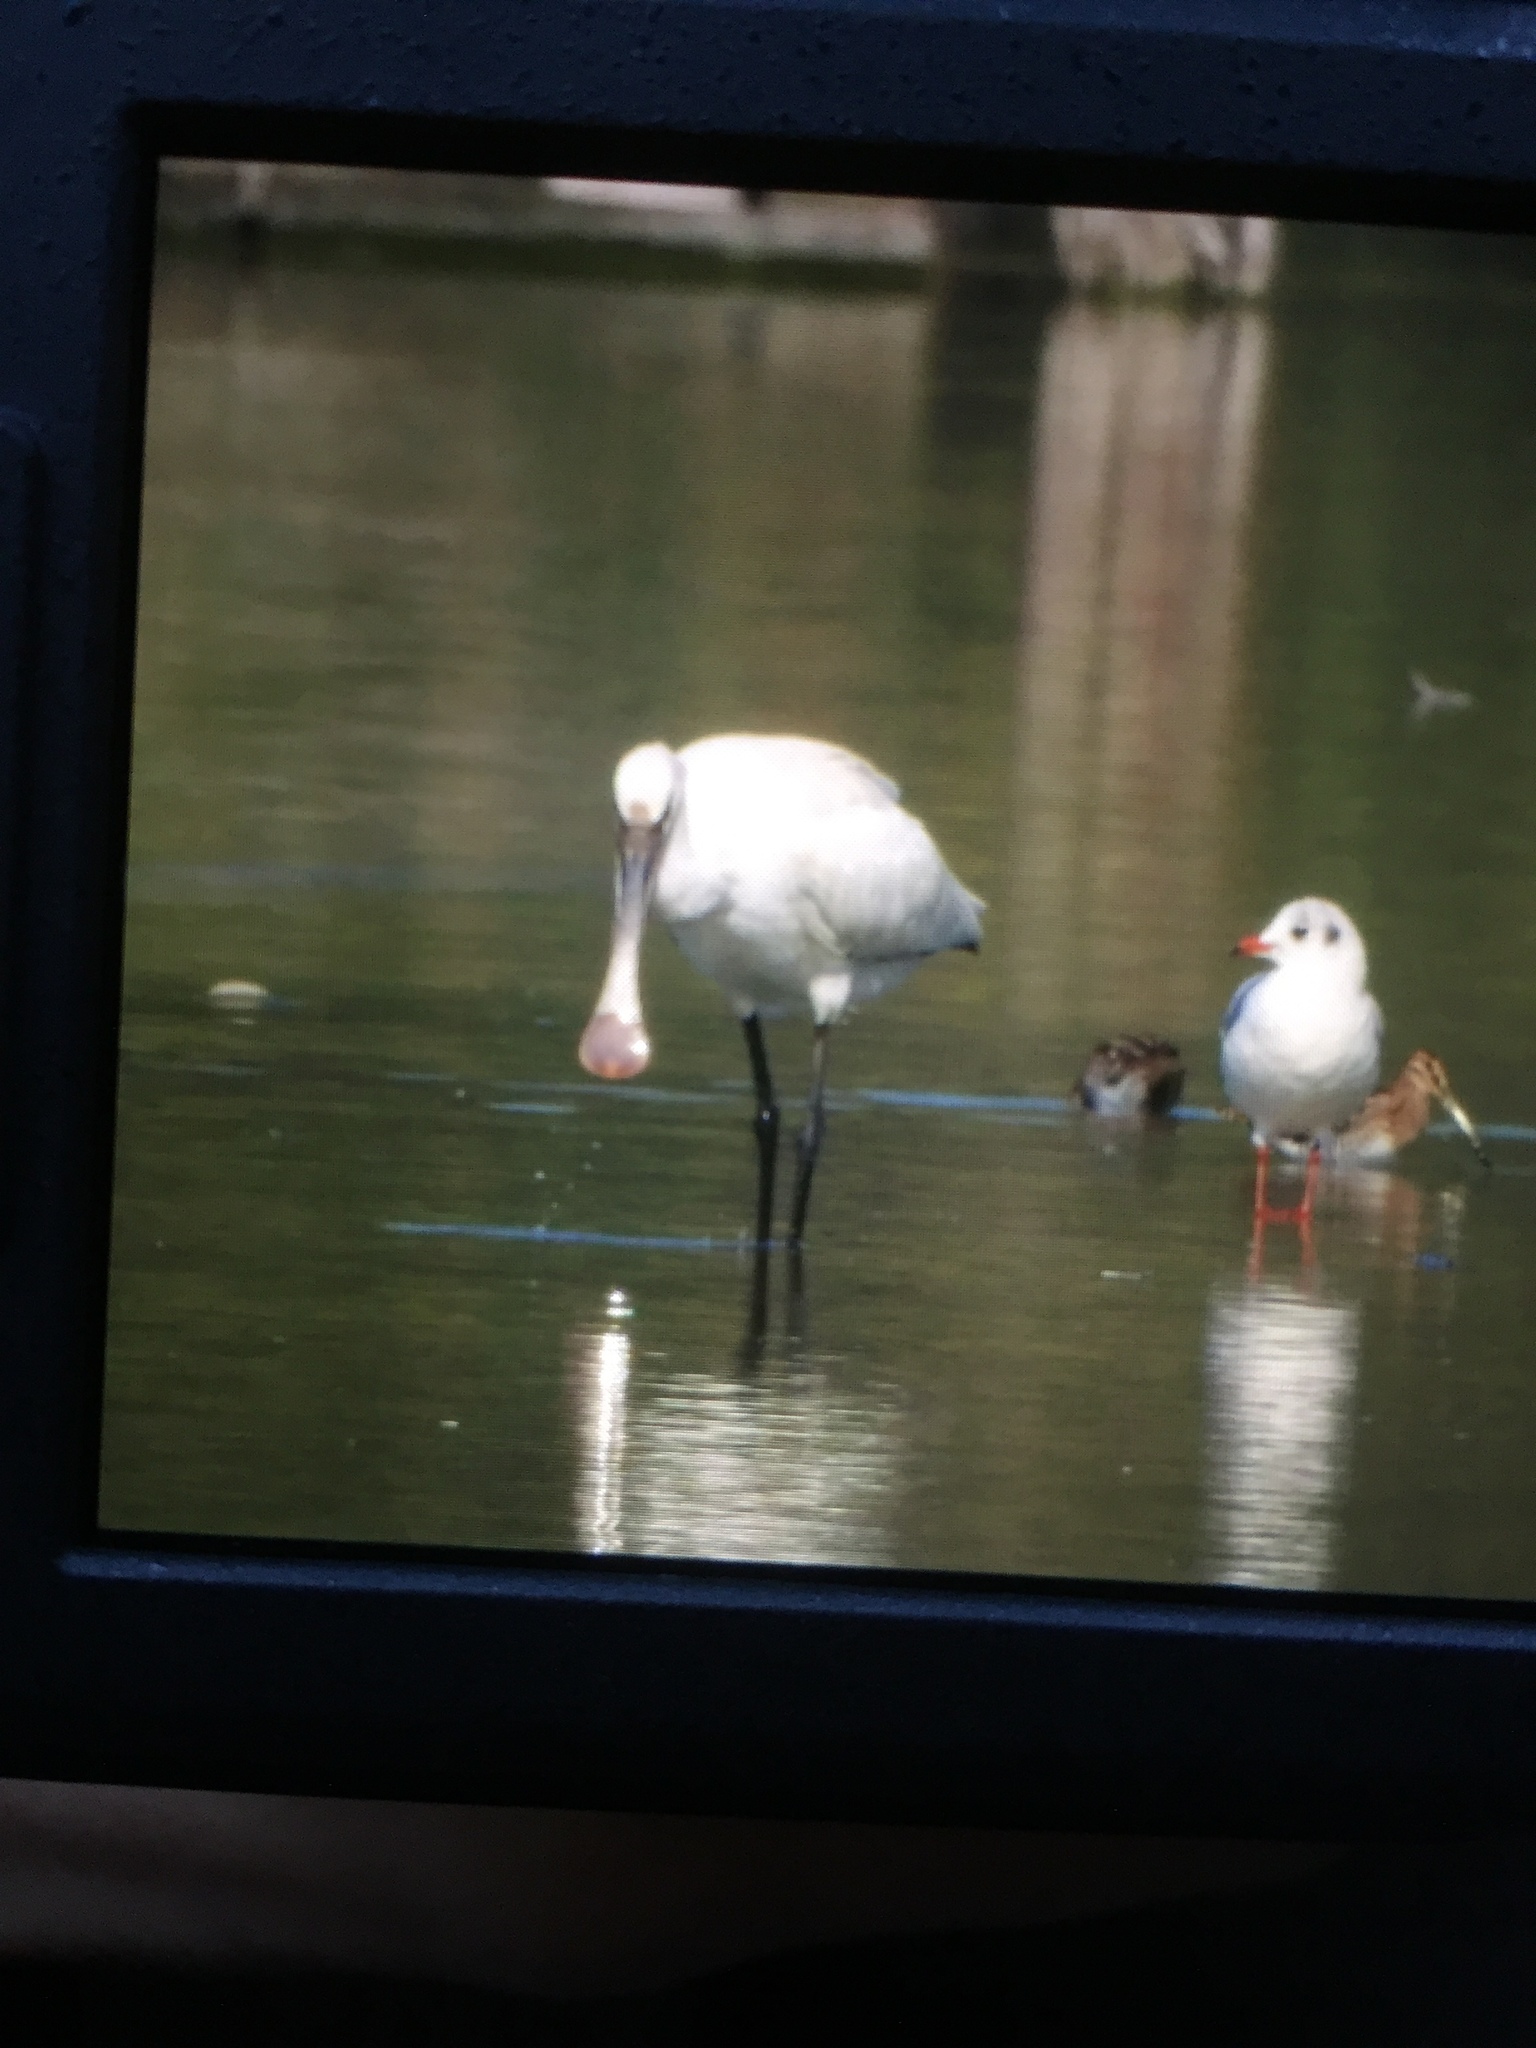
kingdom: Animalia
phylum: Chordata
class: Aves
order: Pelecaniformes
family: Threskiornithidae
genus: Platalea
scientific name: Platalea leucorodia
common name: Eurasian spoonbill
